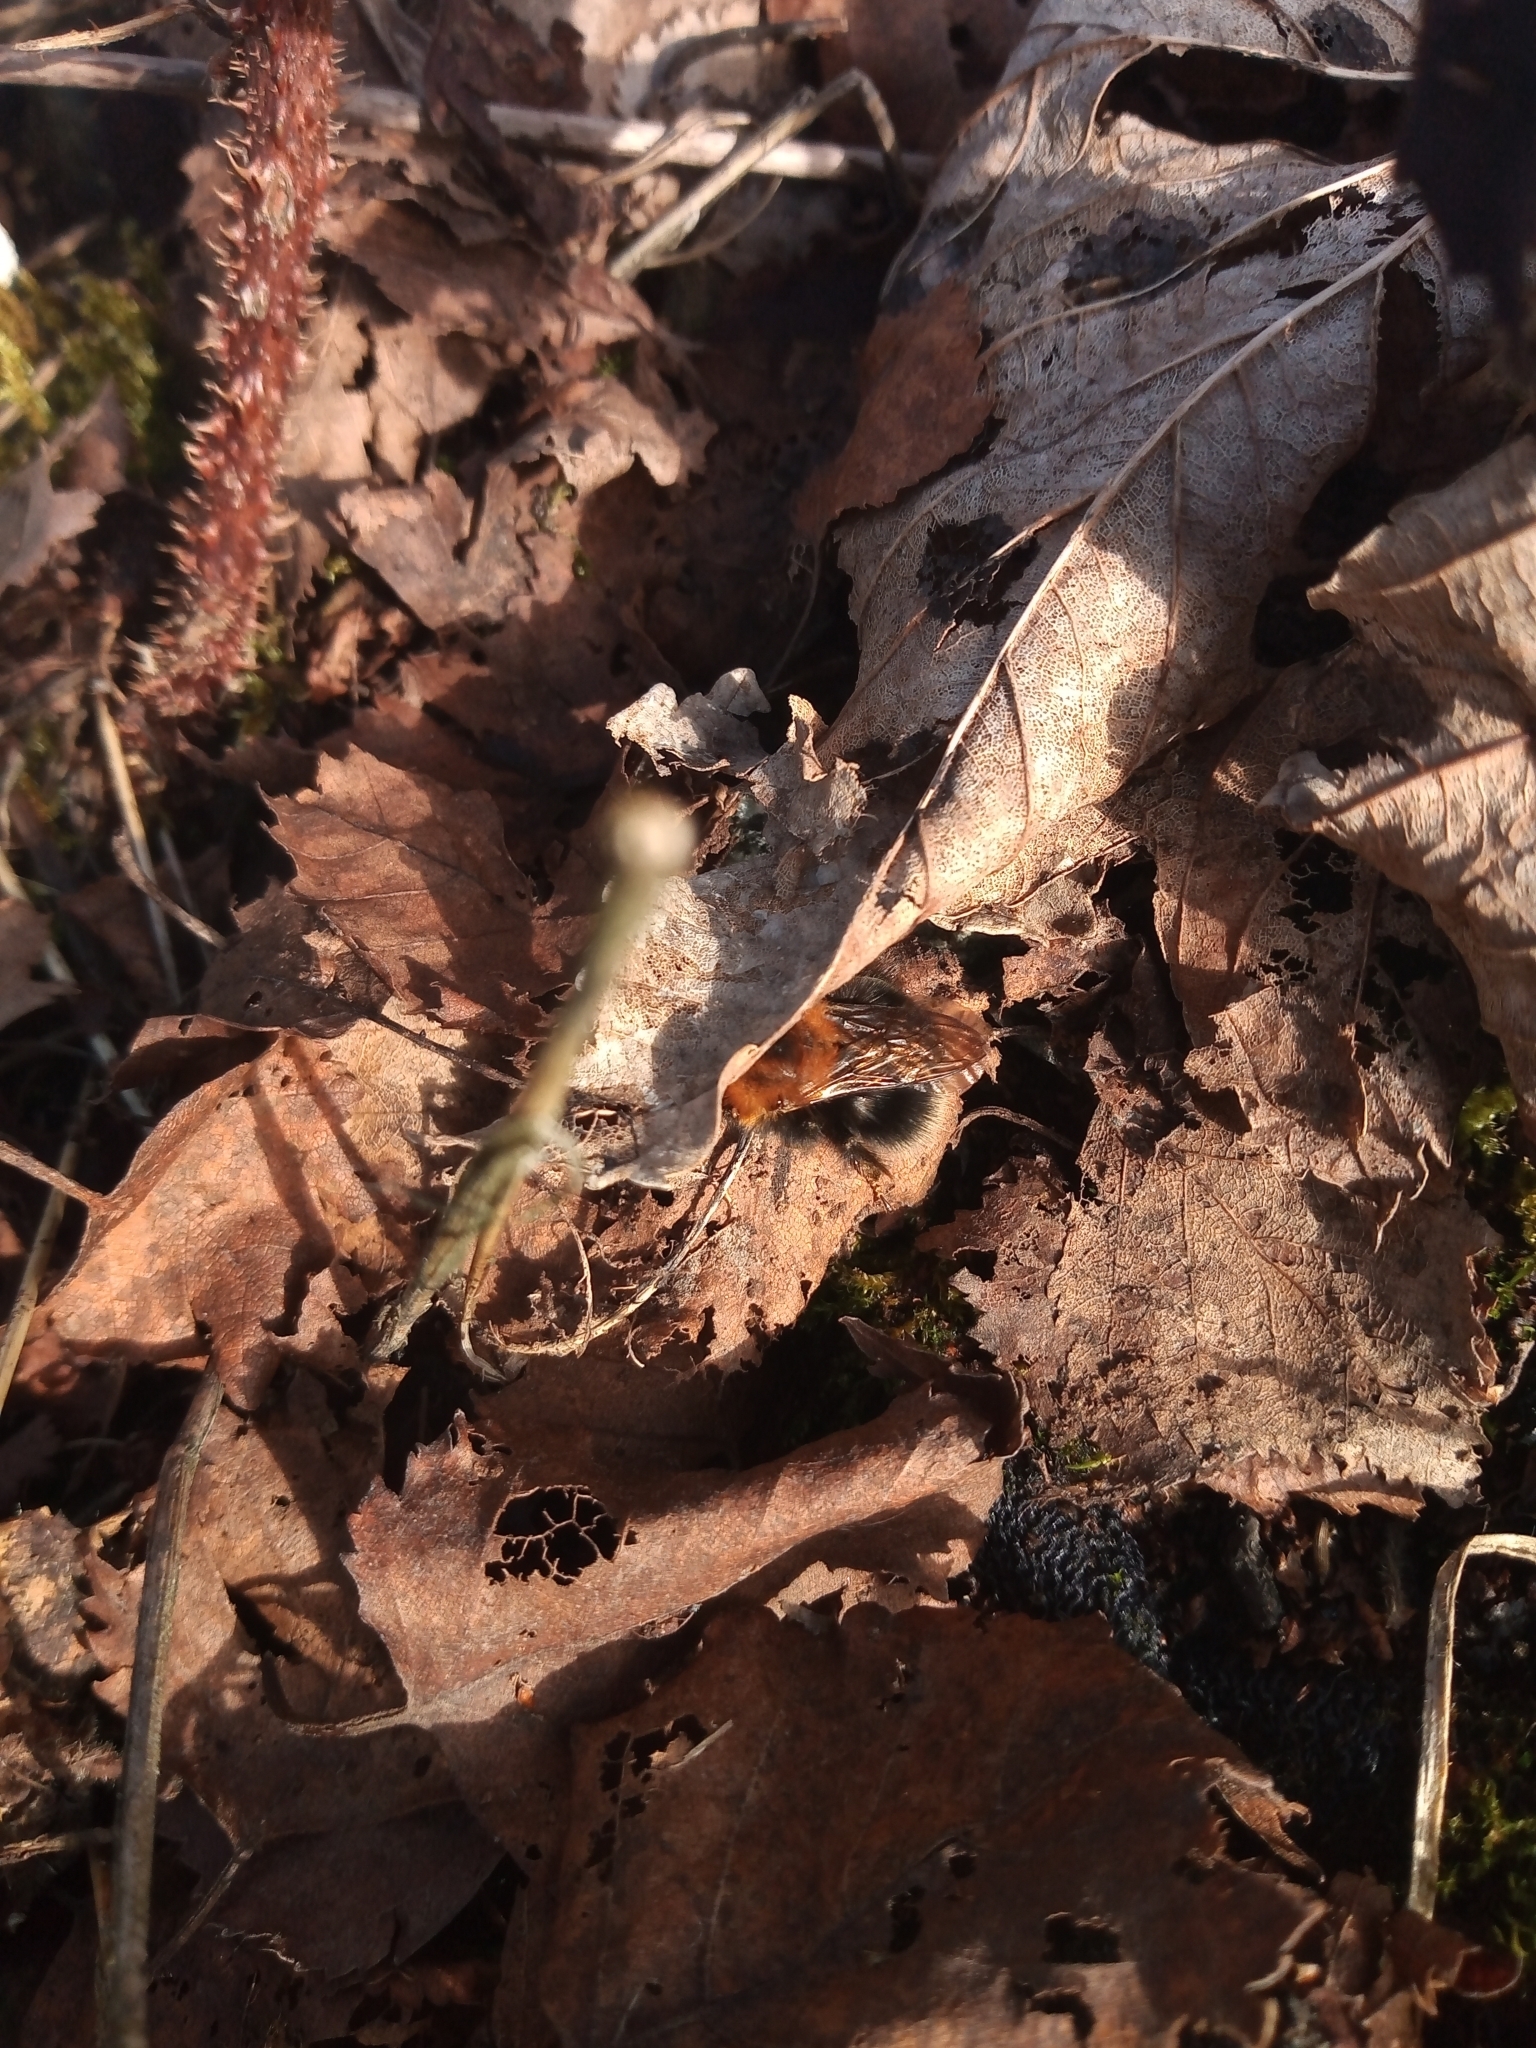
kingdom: Animalia
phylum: Arthropoda
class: Insecta
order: Hymenoptera
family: Apidae
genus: Bombus
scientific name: Bombus hypnorum
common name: New garden bumblebee
